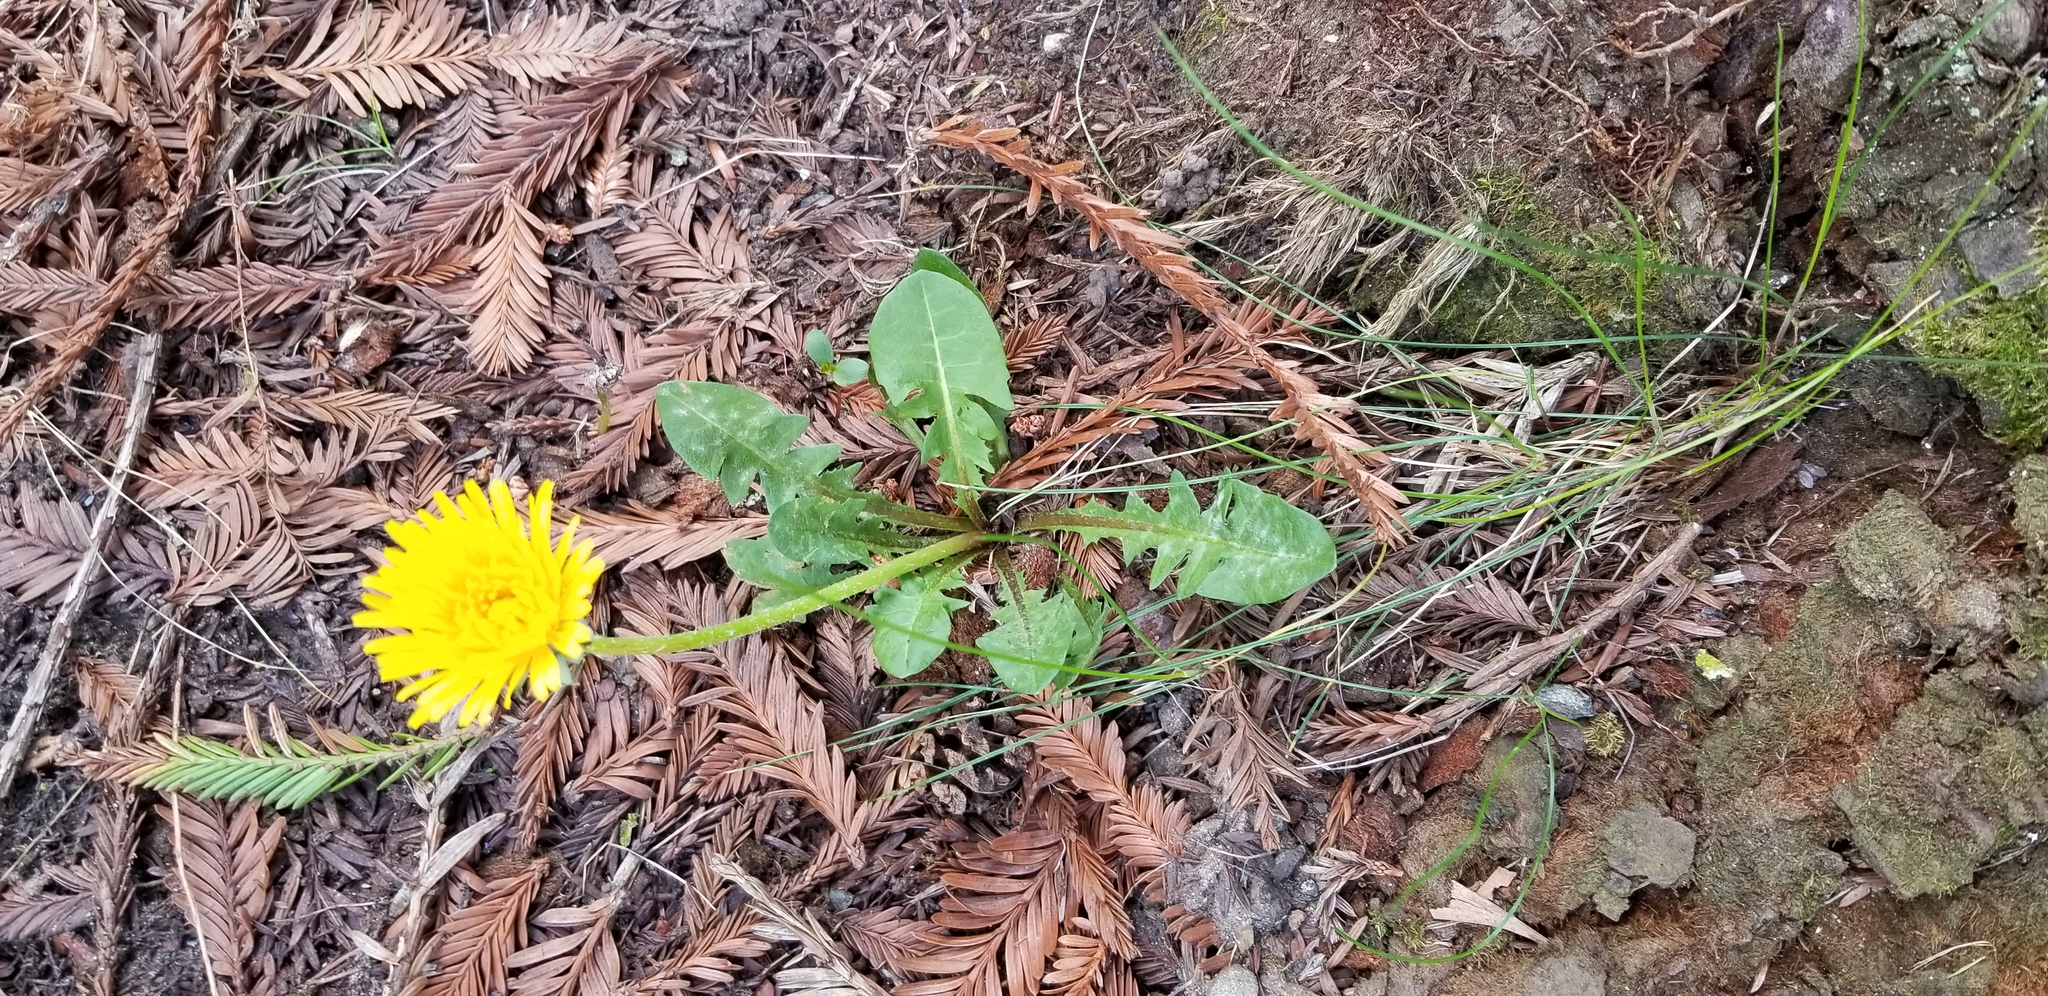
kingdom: Plantae
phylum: Tracheophyta
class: Magnoliopsida
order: Asterales
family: Asteraceae
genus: Taraxacum
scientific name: Taraxacum officinale
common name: Common dandelion
